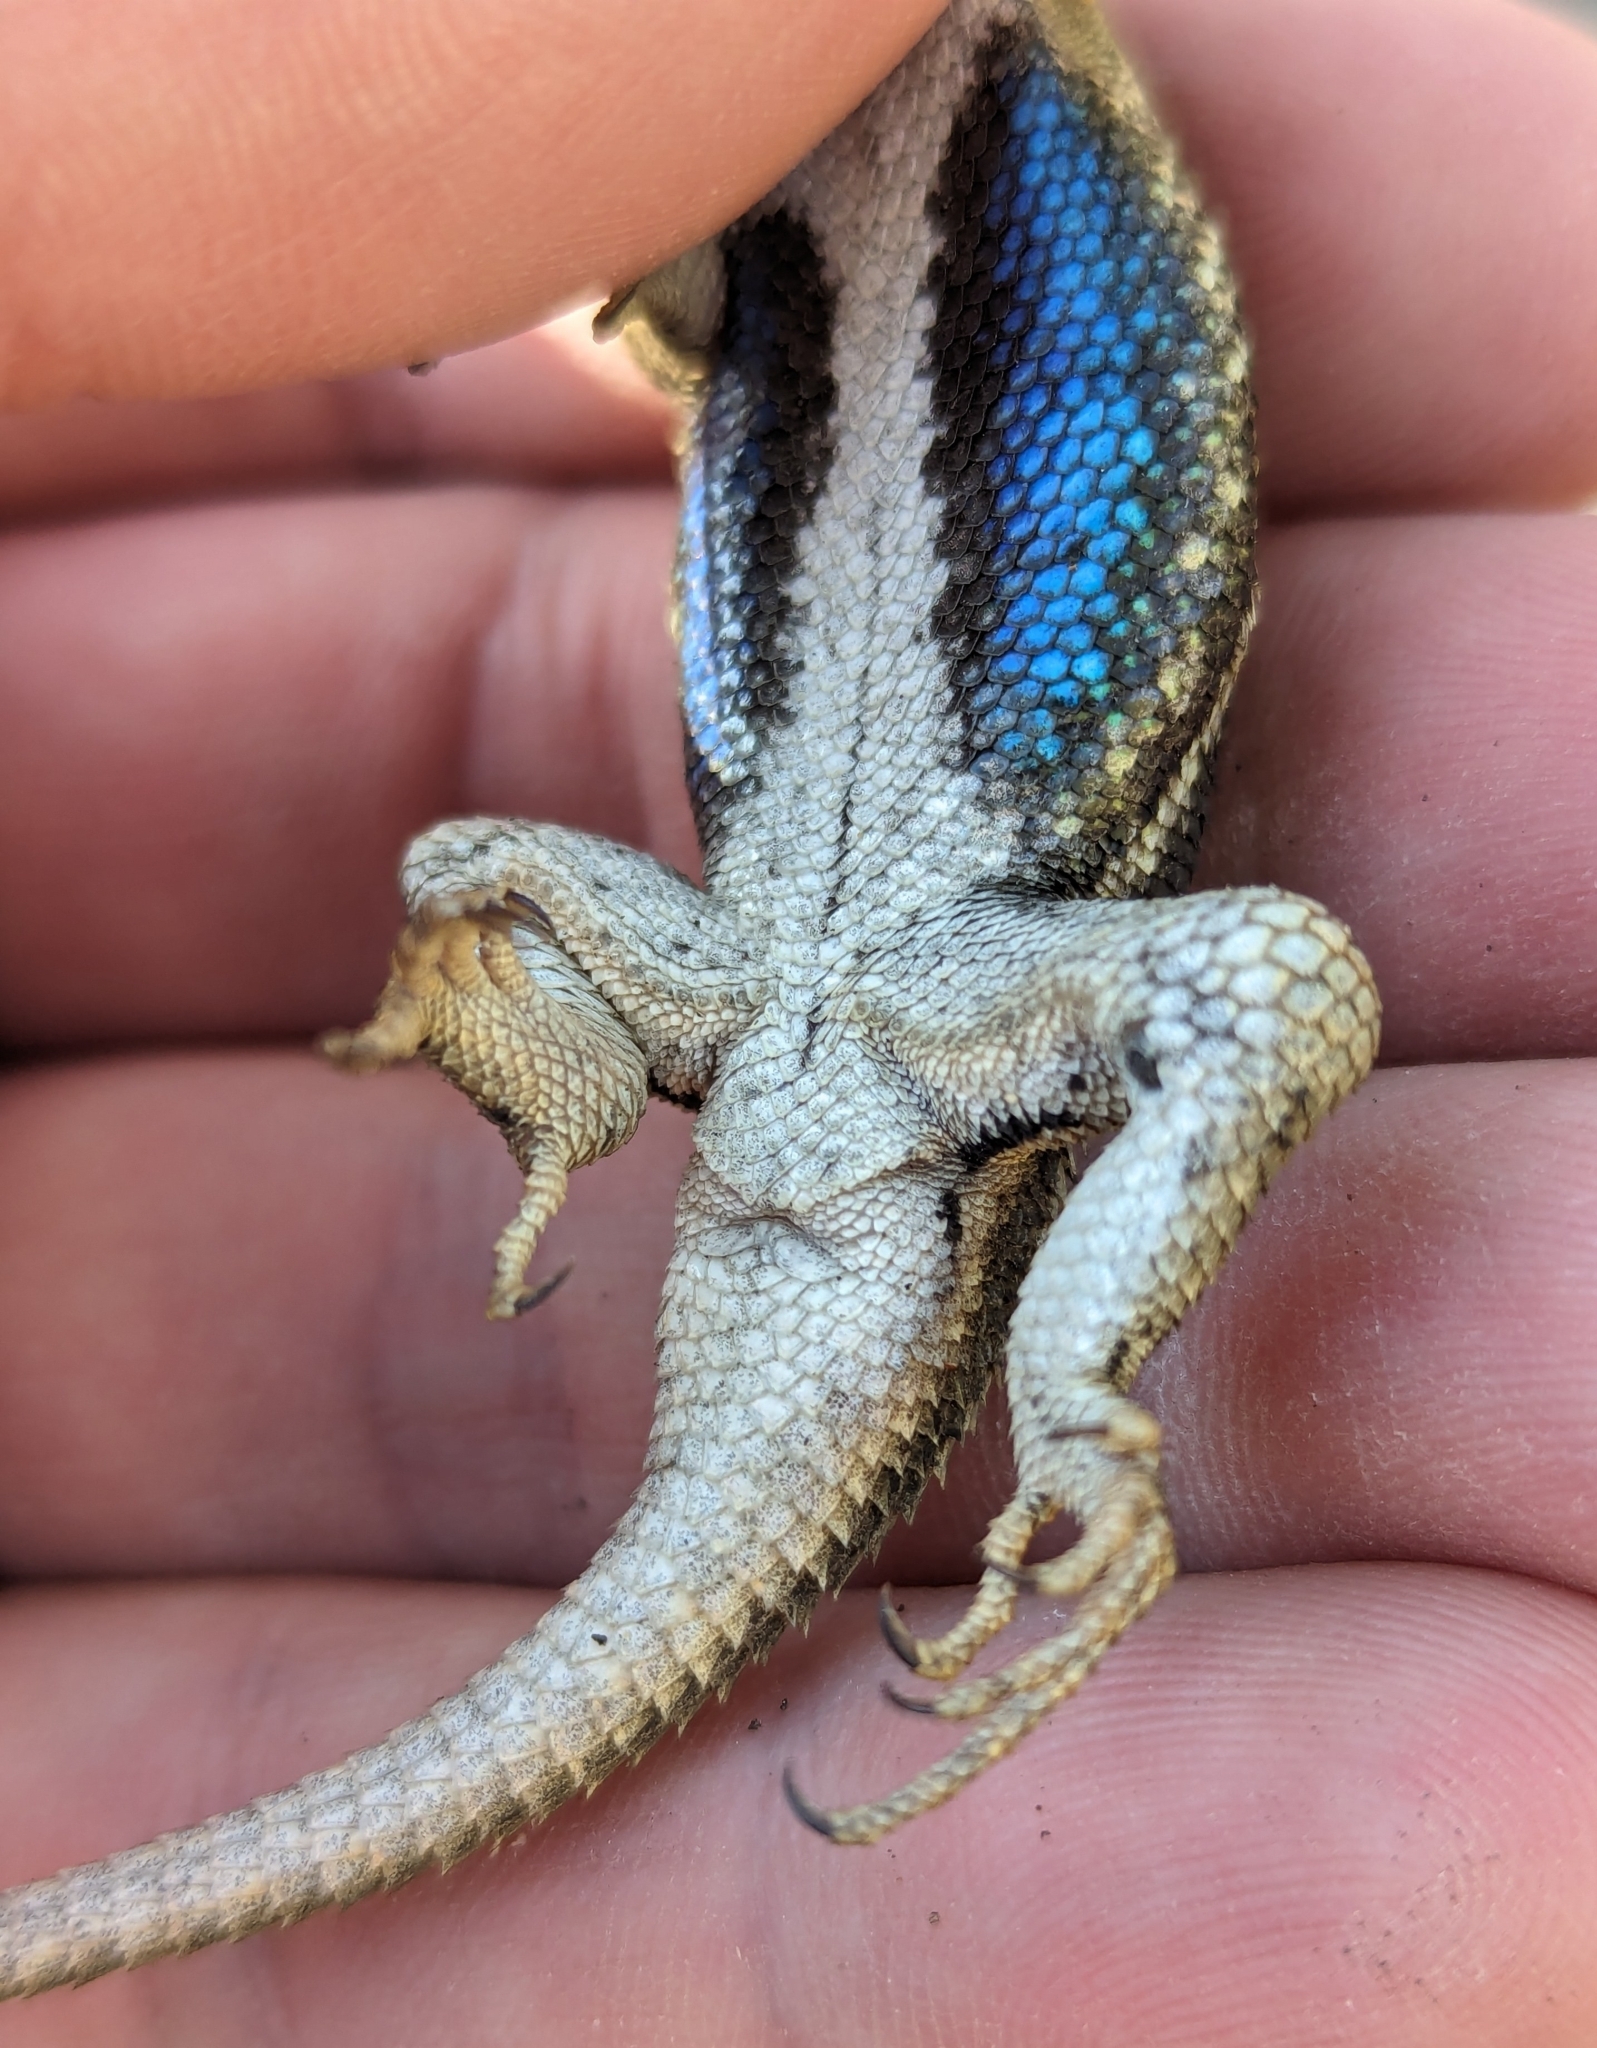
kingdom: Animalia
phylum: Chordata
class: Squamata
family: Phrynosomatidae
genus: Sceloporus
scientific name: Sceloporus tristichus
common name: Plateau fence lizard
